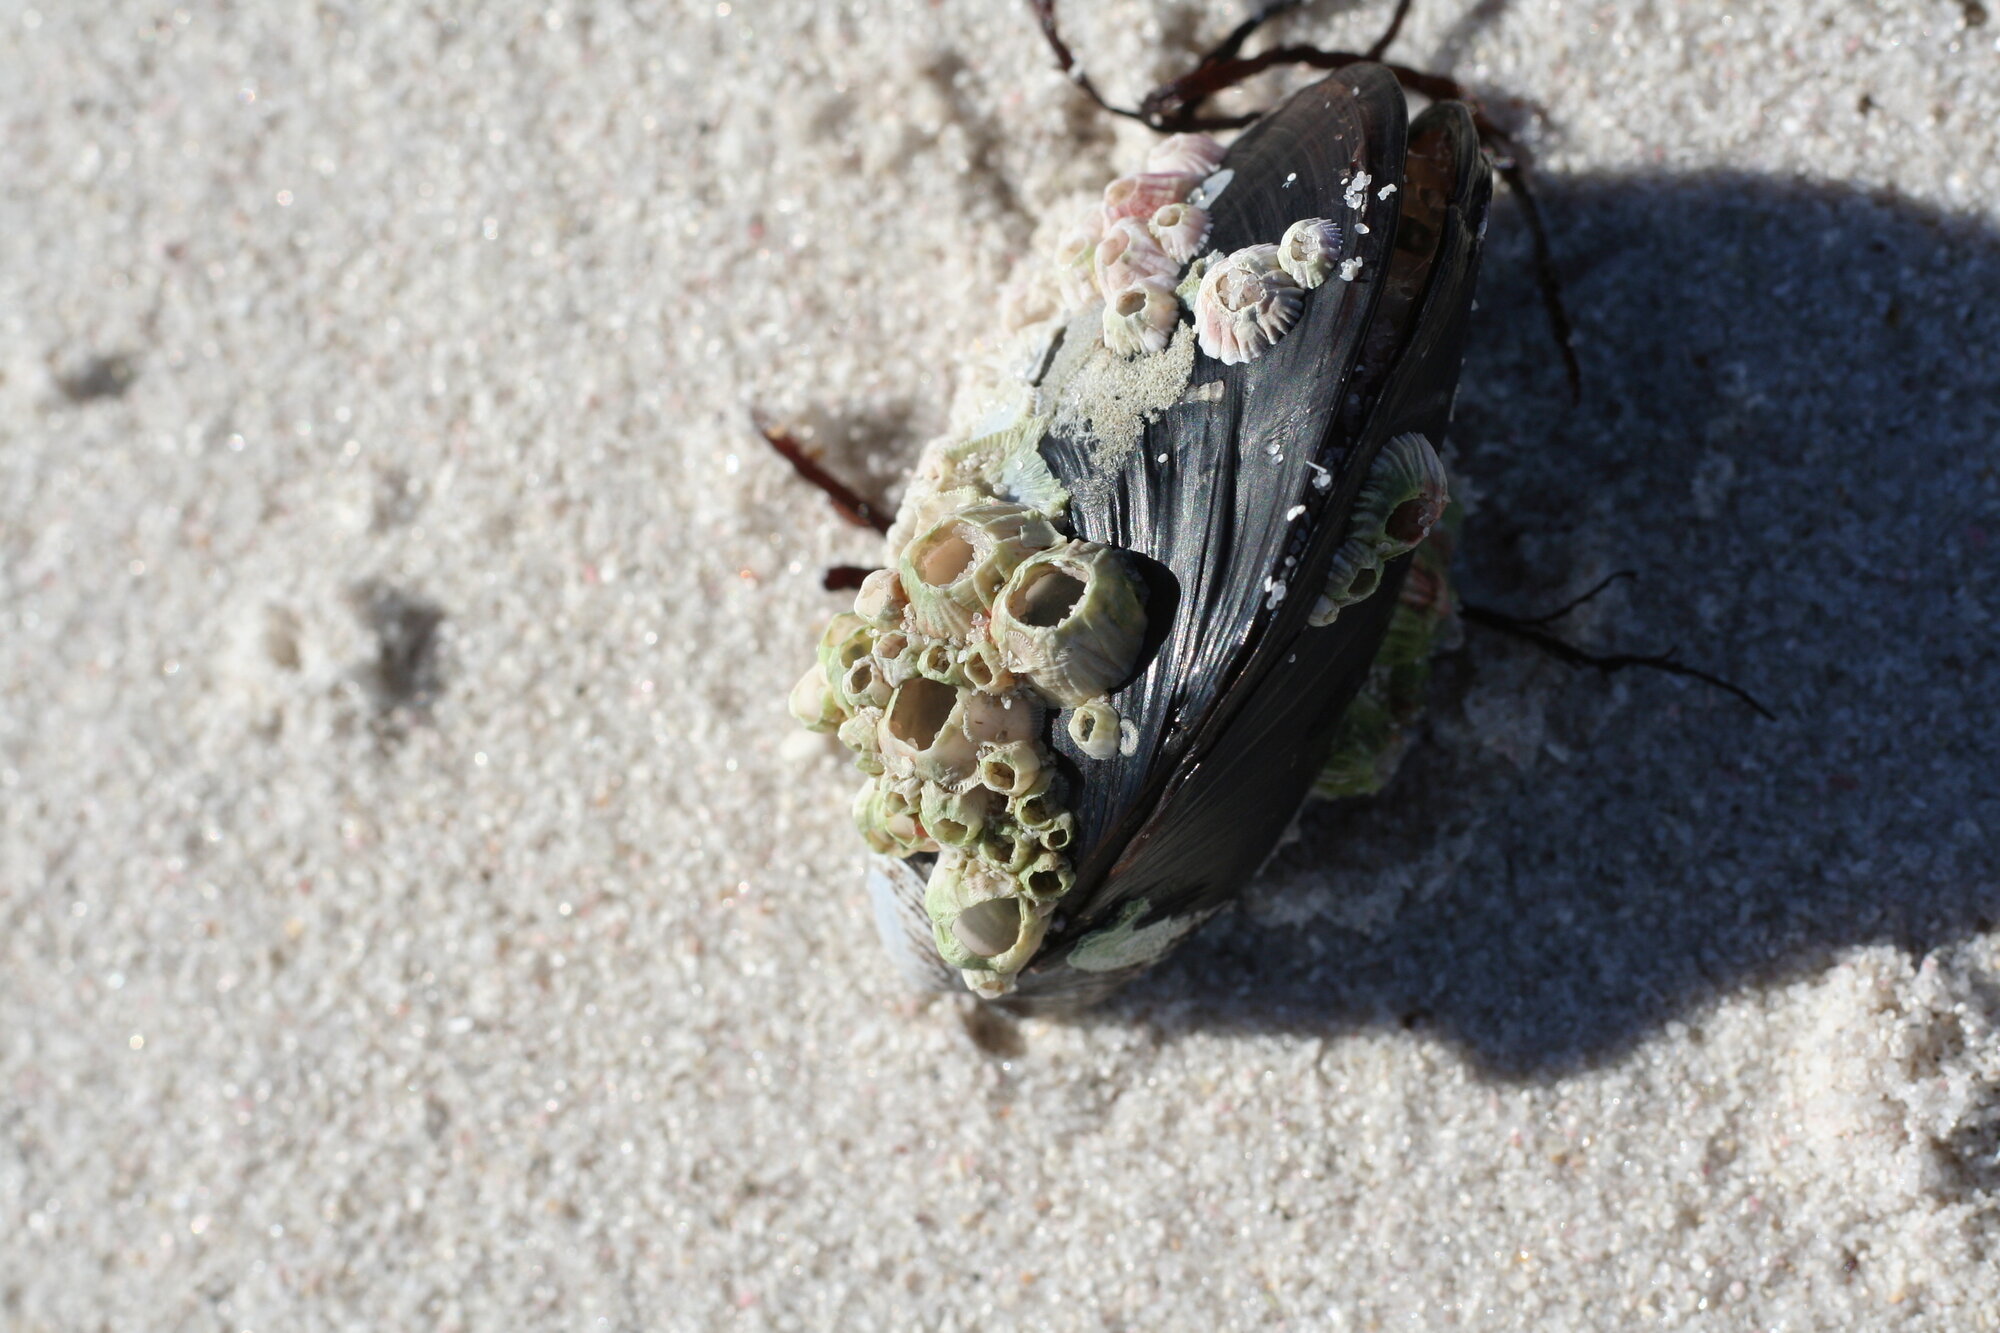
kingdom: Animalia
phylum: Mollusca
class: Bivalvia
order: Mytilida
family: Mytilidae
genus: Mytilus
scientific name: Mytilus galloprovincialis
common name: Mediterranean mussel
